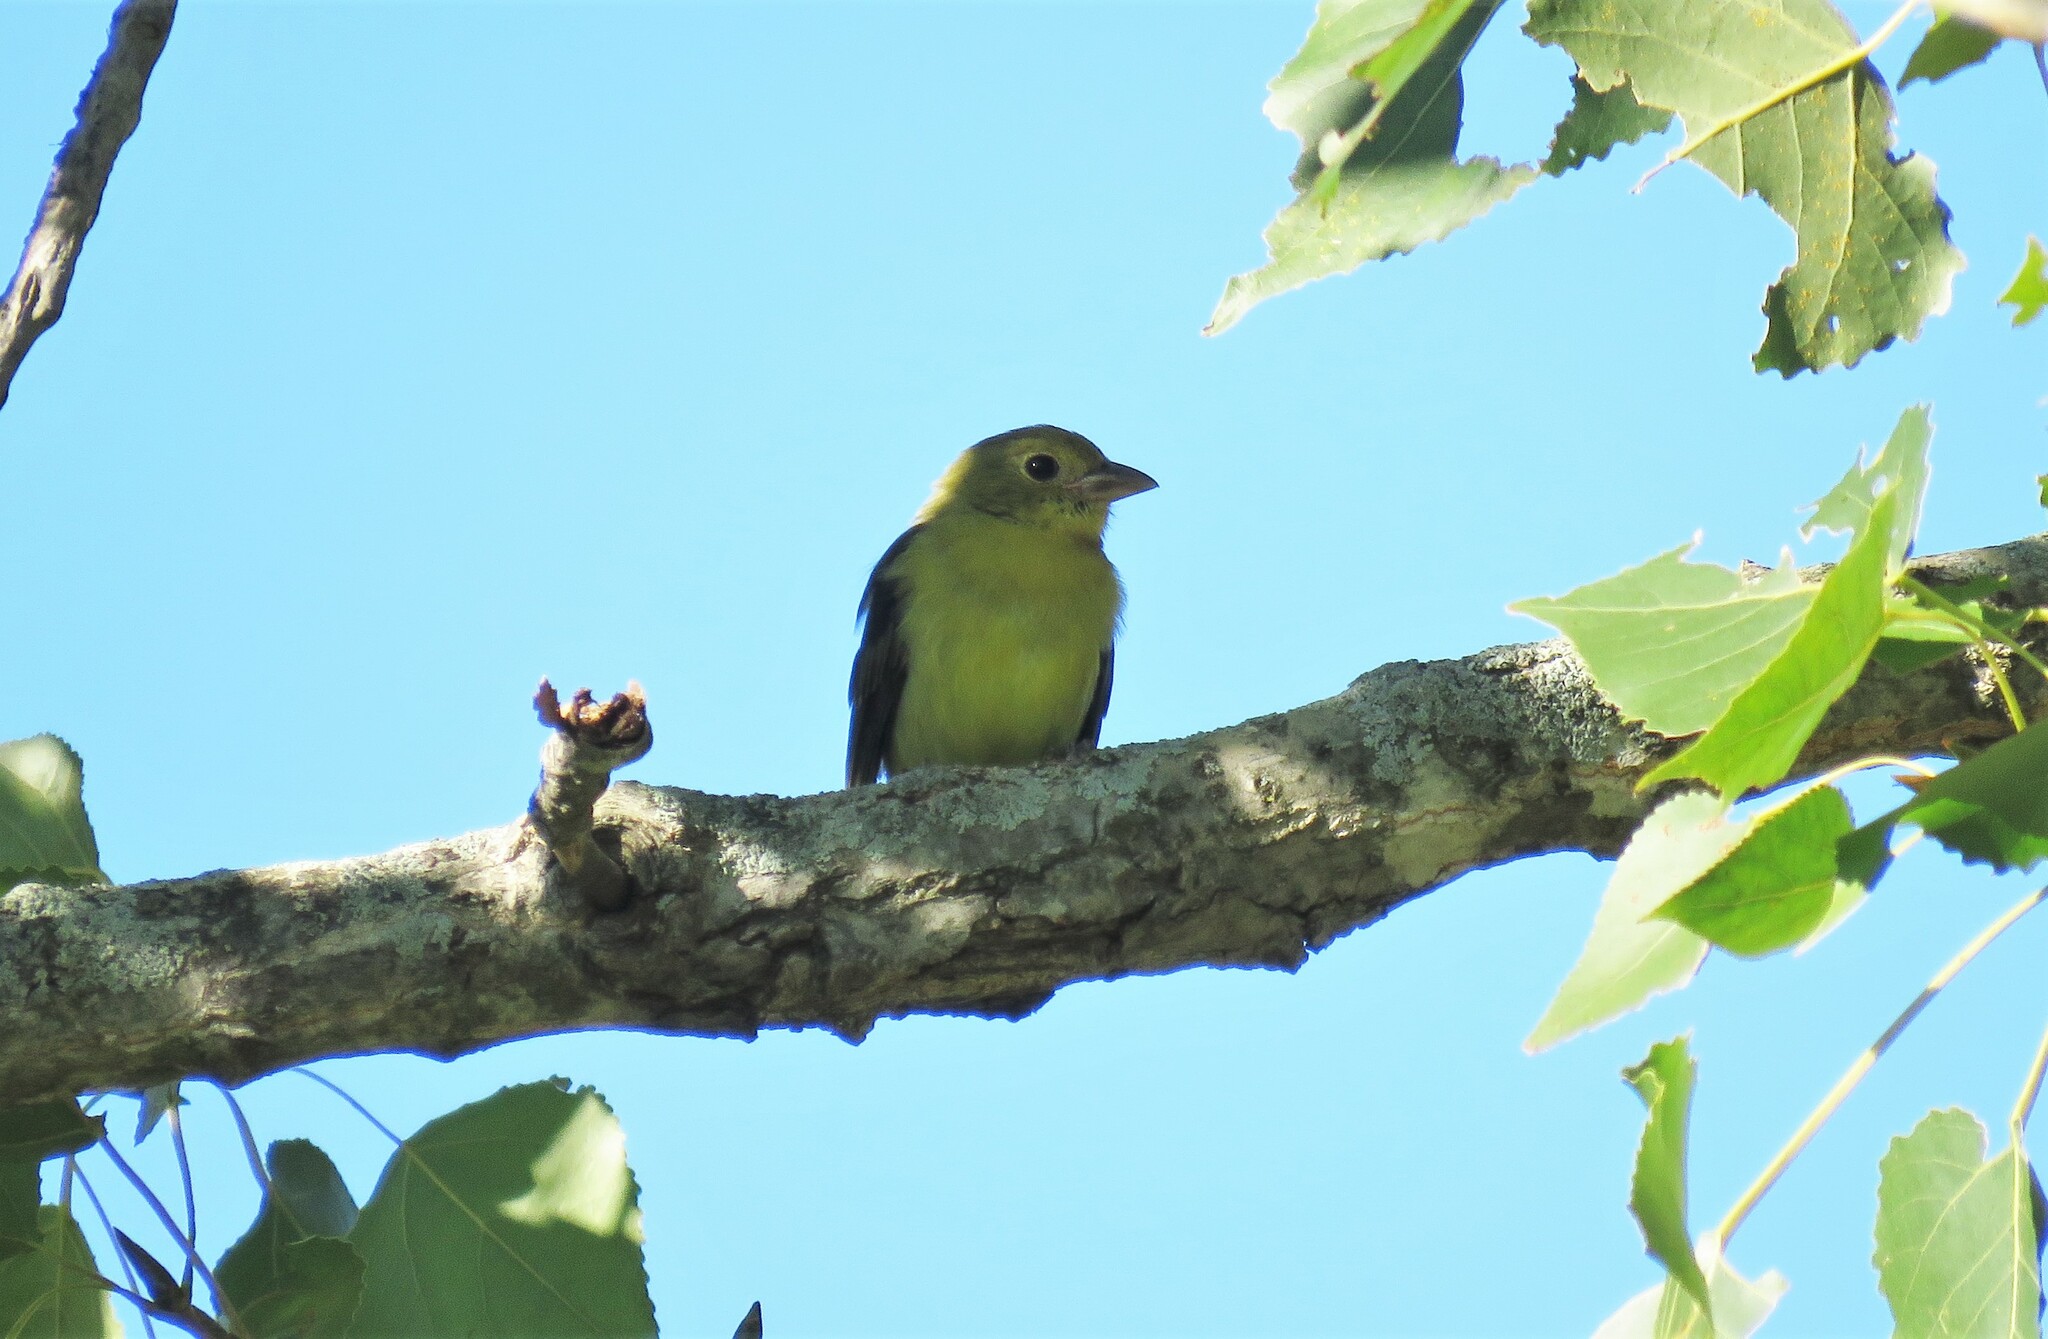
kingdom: Animalia
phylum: Chordata
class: Aves
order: Passeriformes
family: Cardinalidae
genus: Piranga
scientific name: Piranga olivacea
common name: Scarlet tanager
